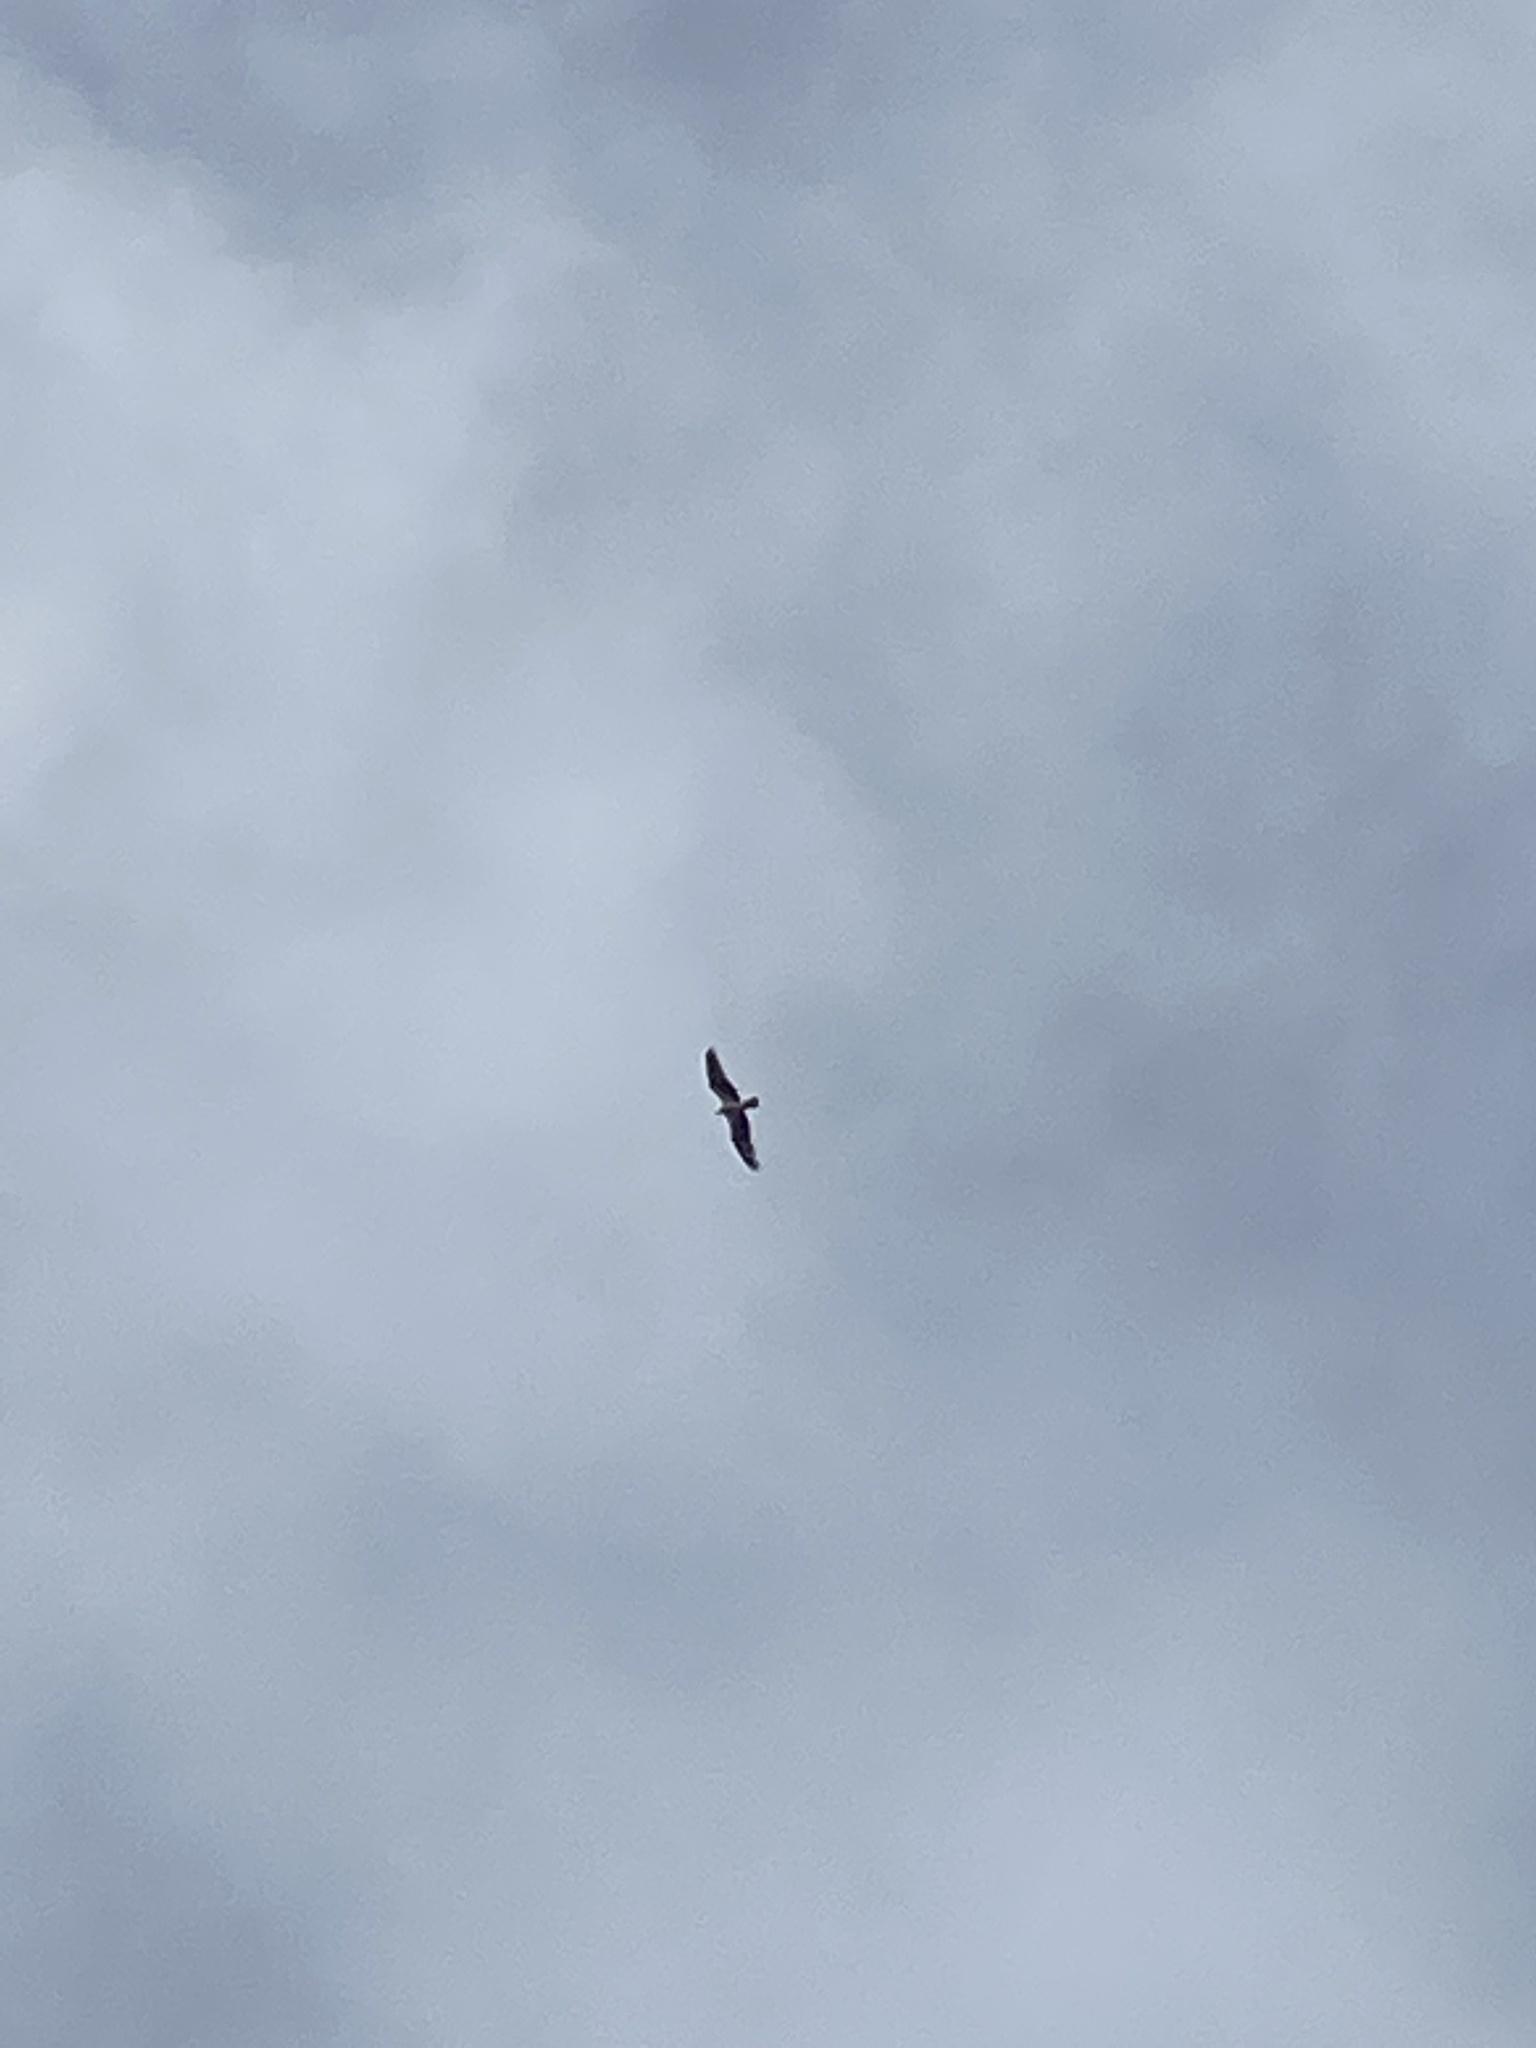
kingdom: Animalia
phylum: Chordata
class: Aves
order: Accipitriformes
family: Pandionidae
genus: Pandion
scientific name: Pandion haliaetus
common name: Osprey
